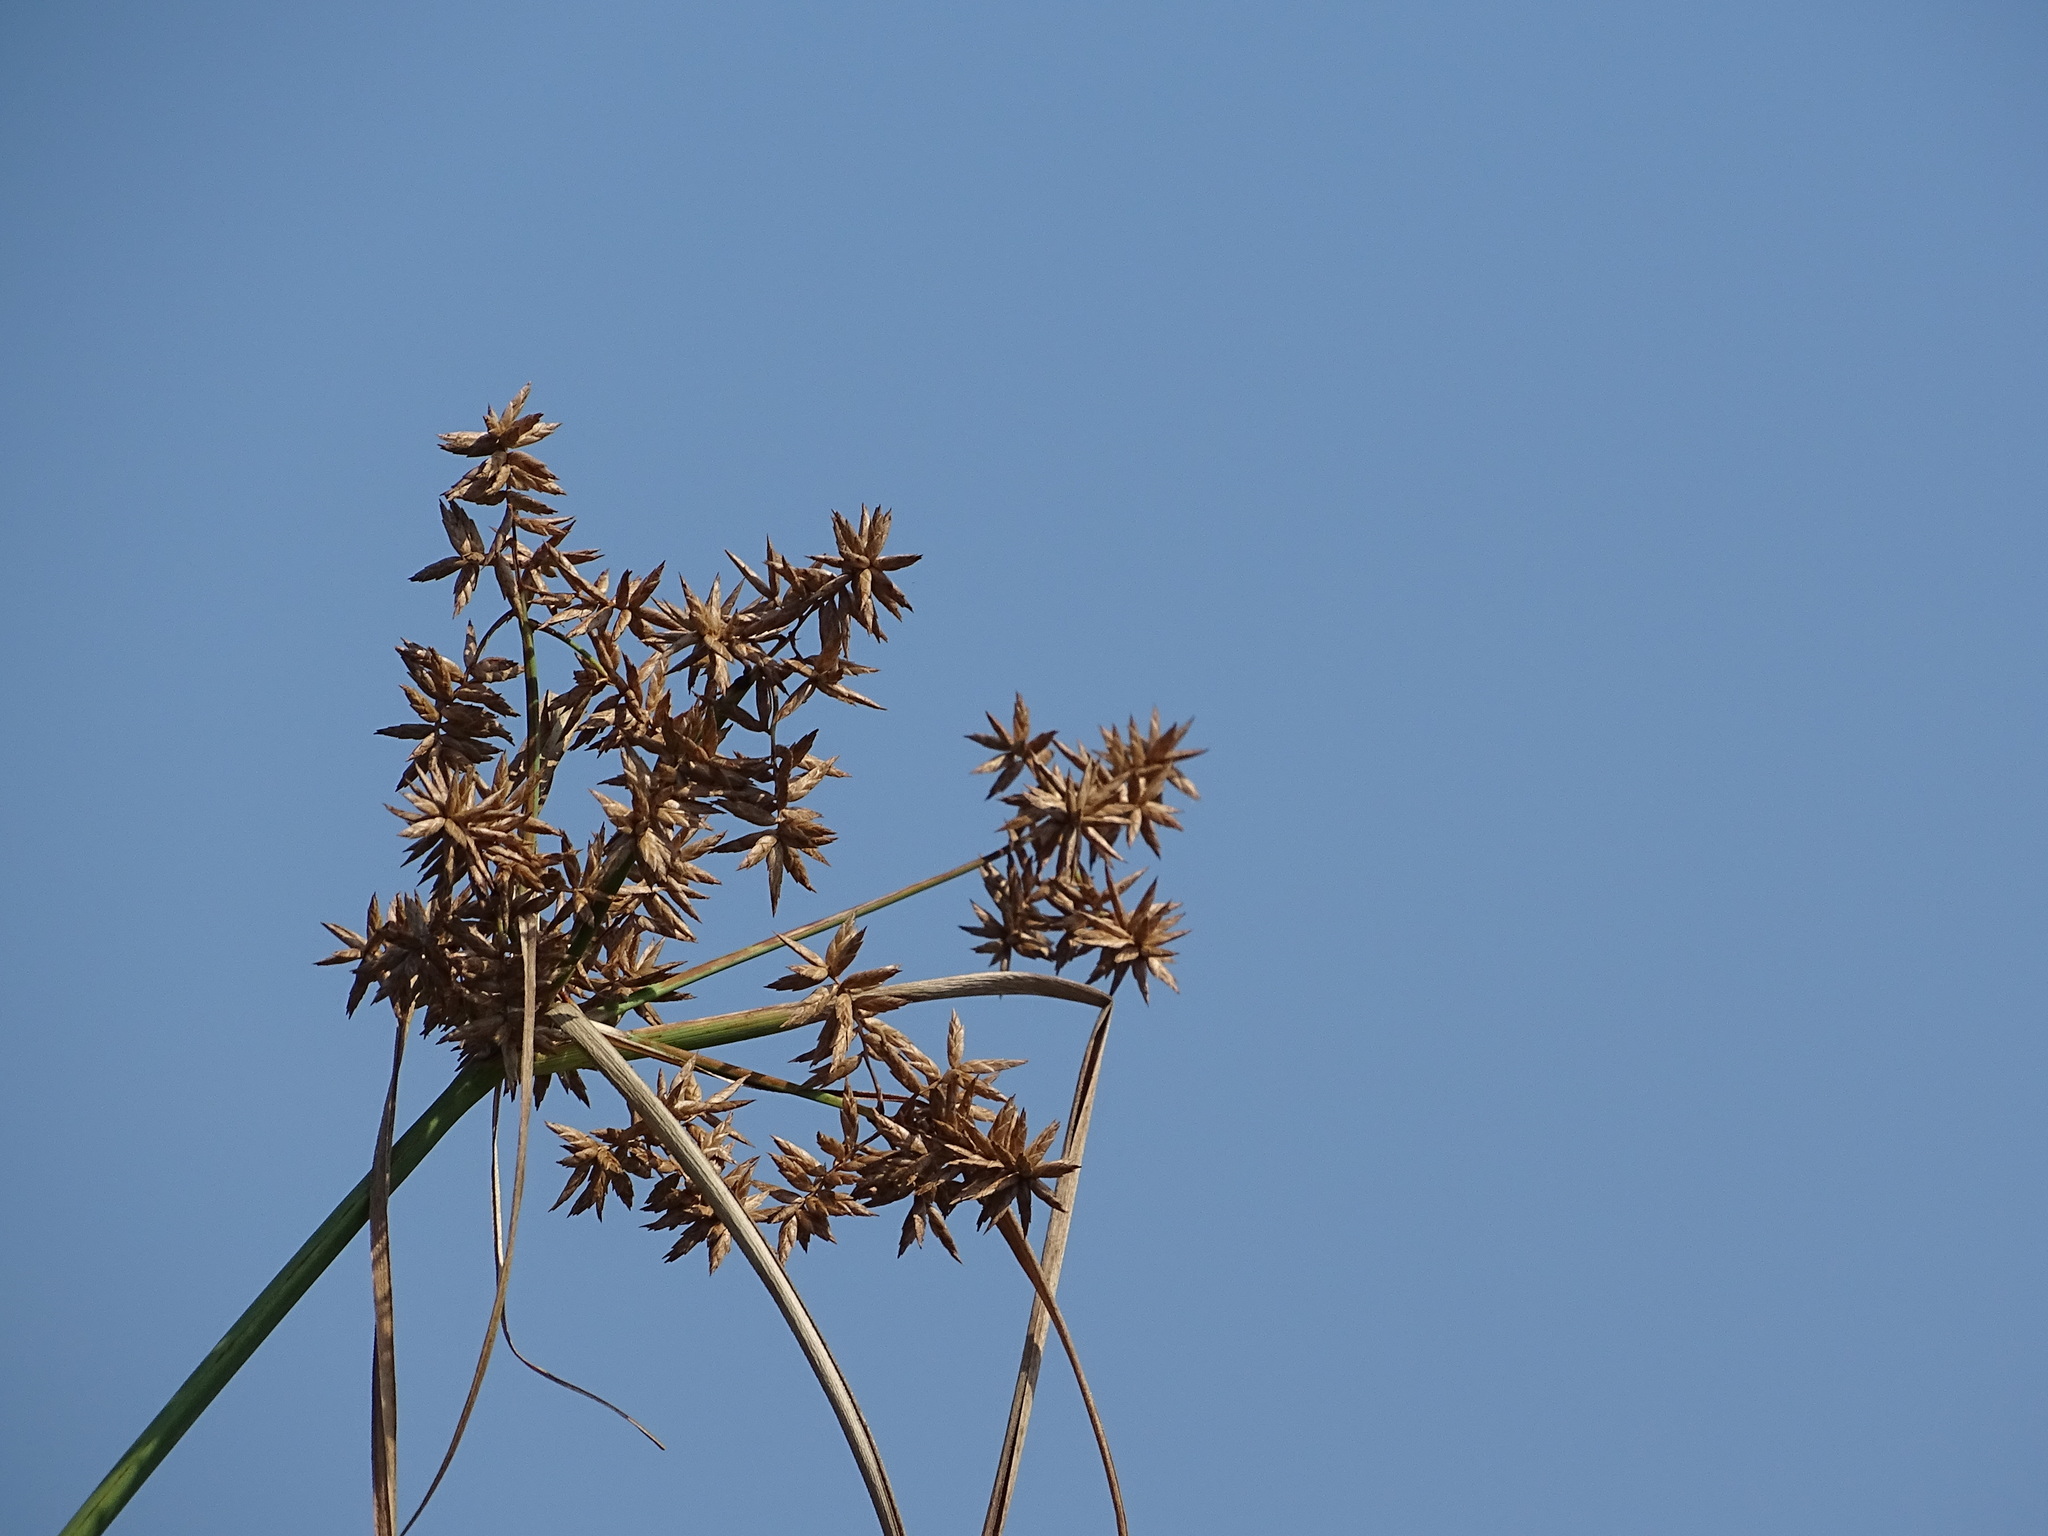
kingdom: Plantae
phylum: Tracheophyta
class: Liliopsida
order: Poales
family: Cyperaceae
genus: Cyperus
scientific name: Cyperus javanicus
